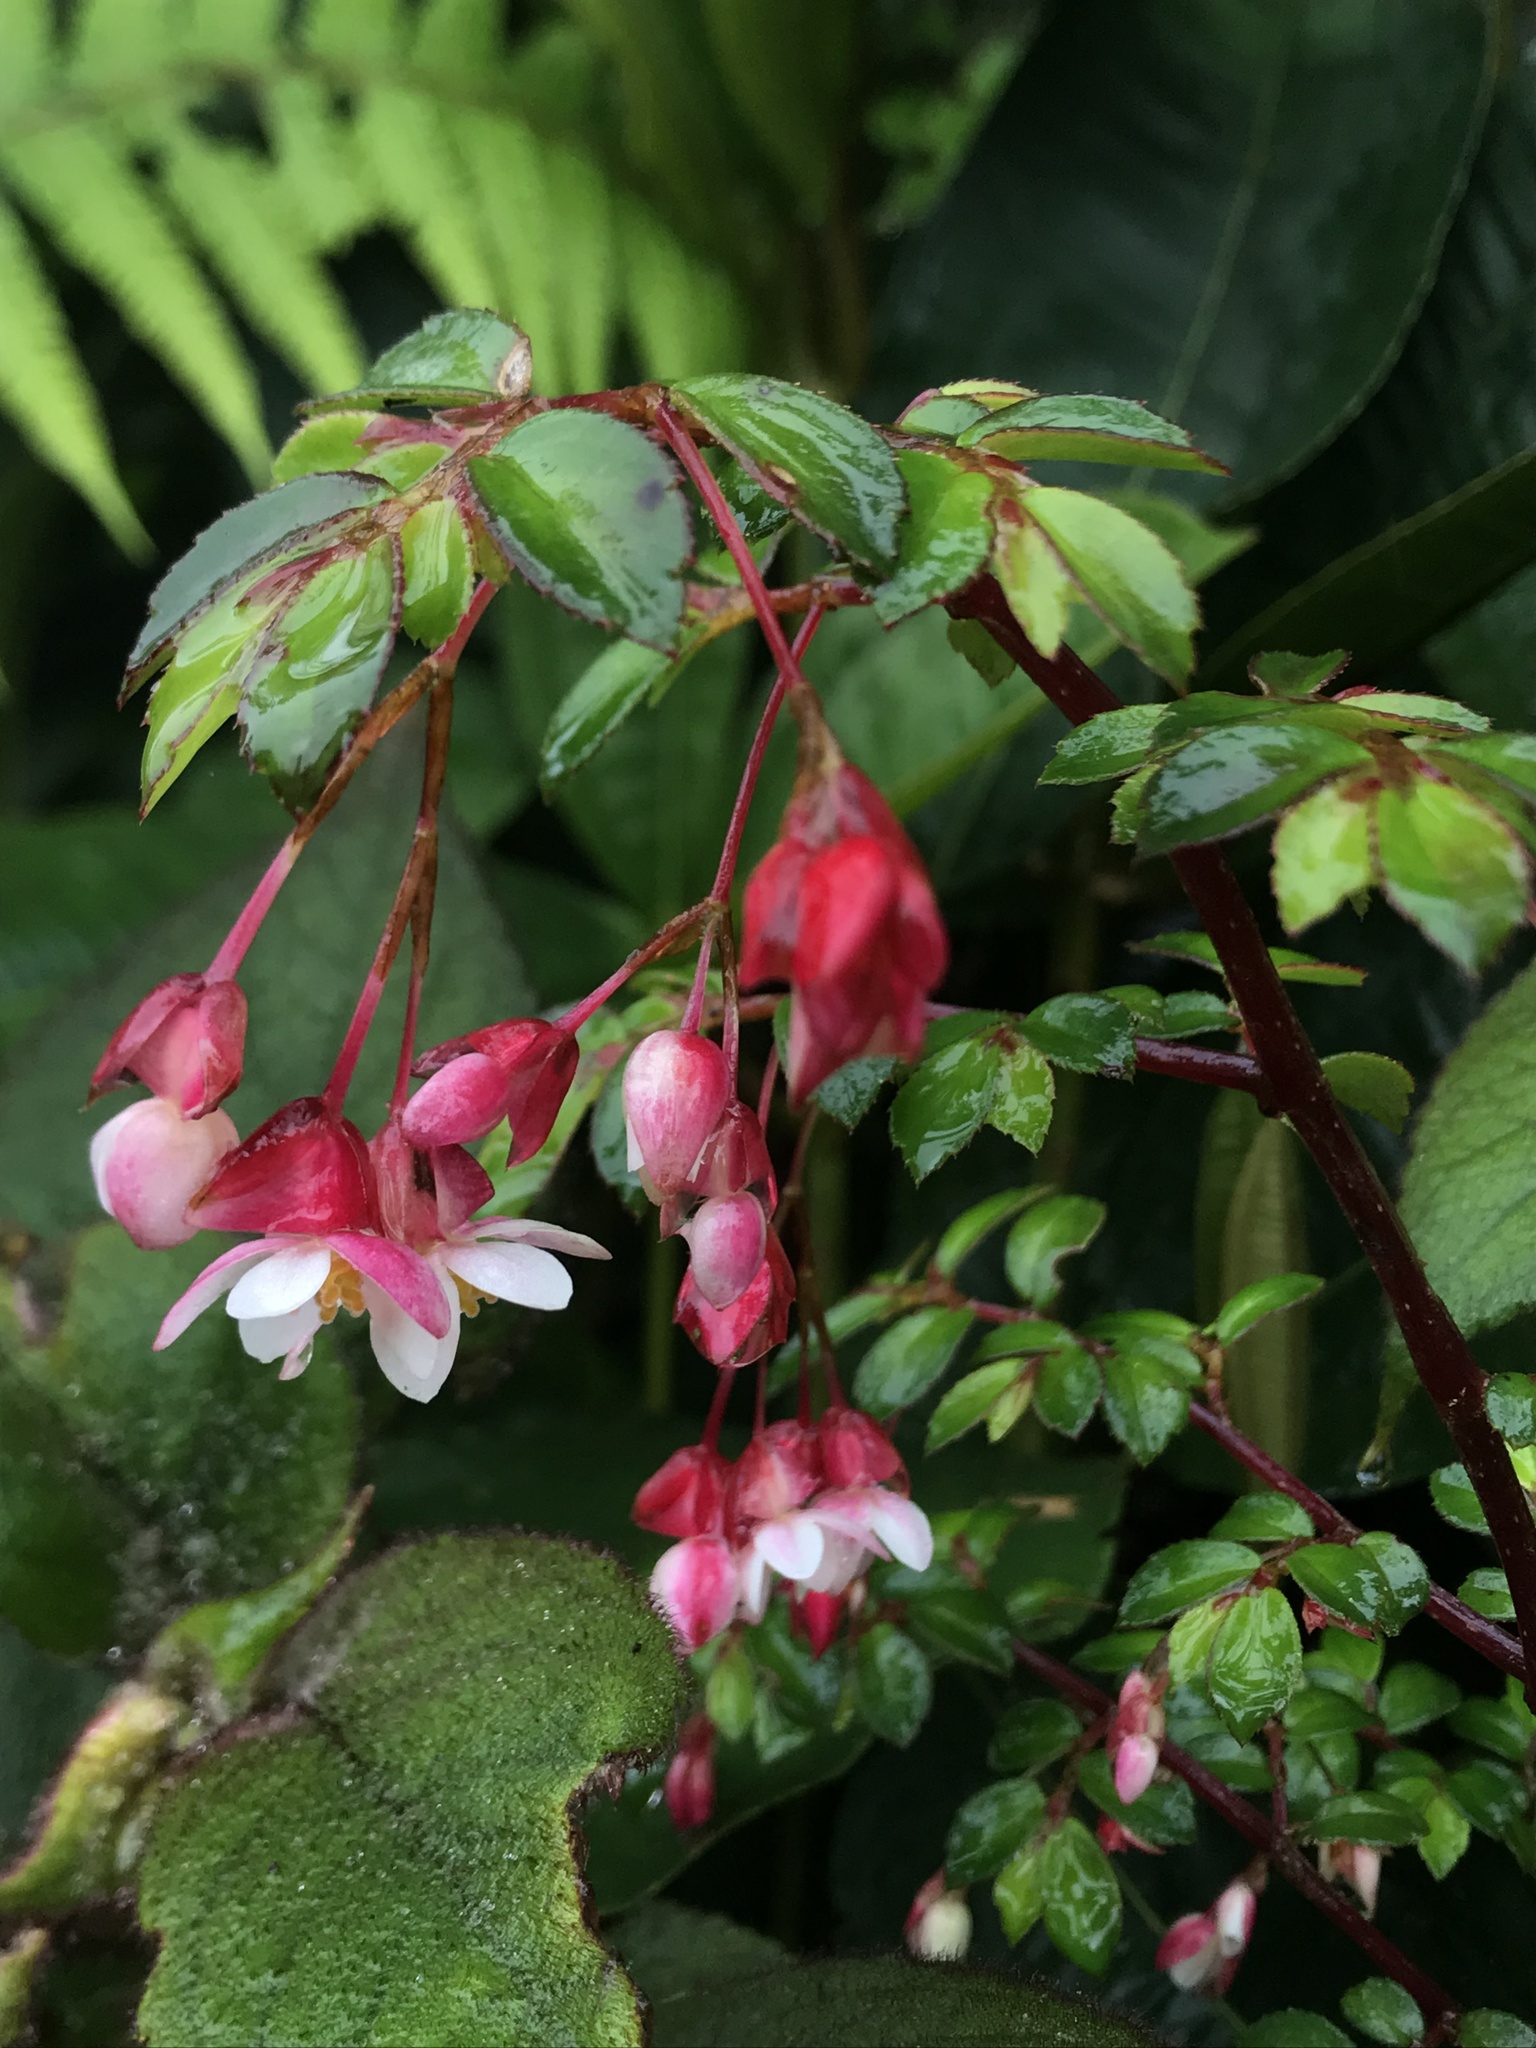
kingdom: Plantae
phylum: Tracheophyta
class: Magnoliopsida
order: Cucurbitales
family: Begoniaceae
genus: Begonia
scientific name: Begonia foliosa
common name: Fern begonia
